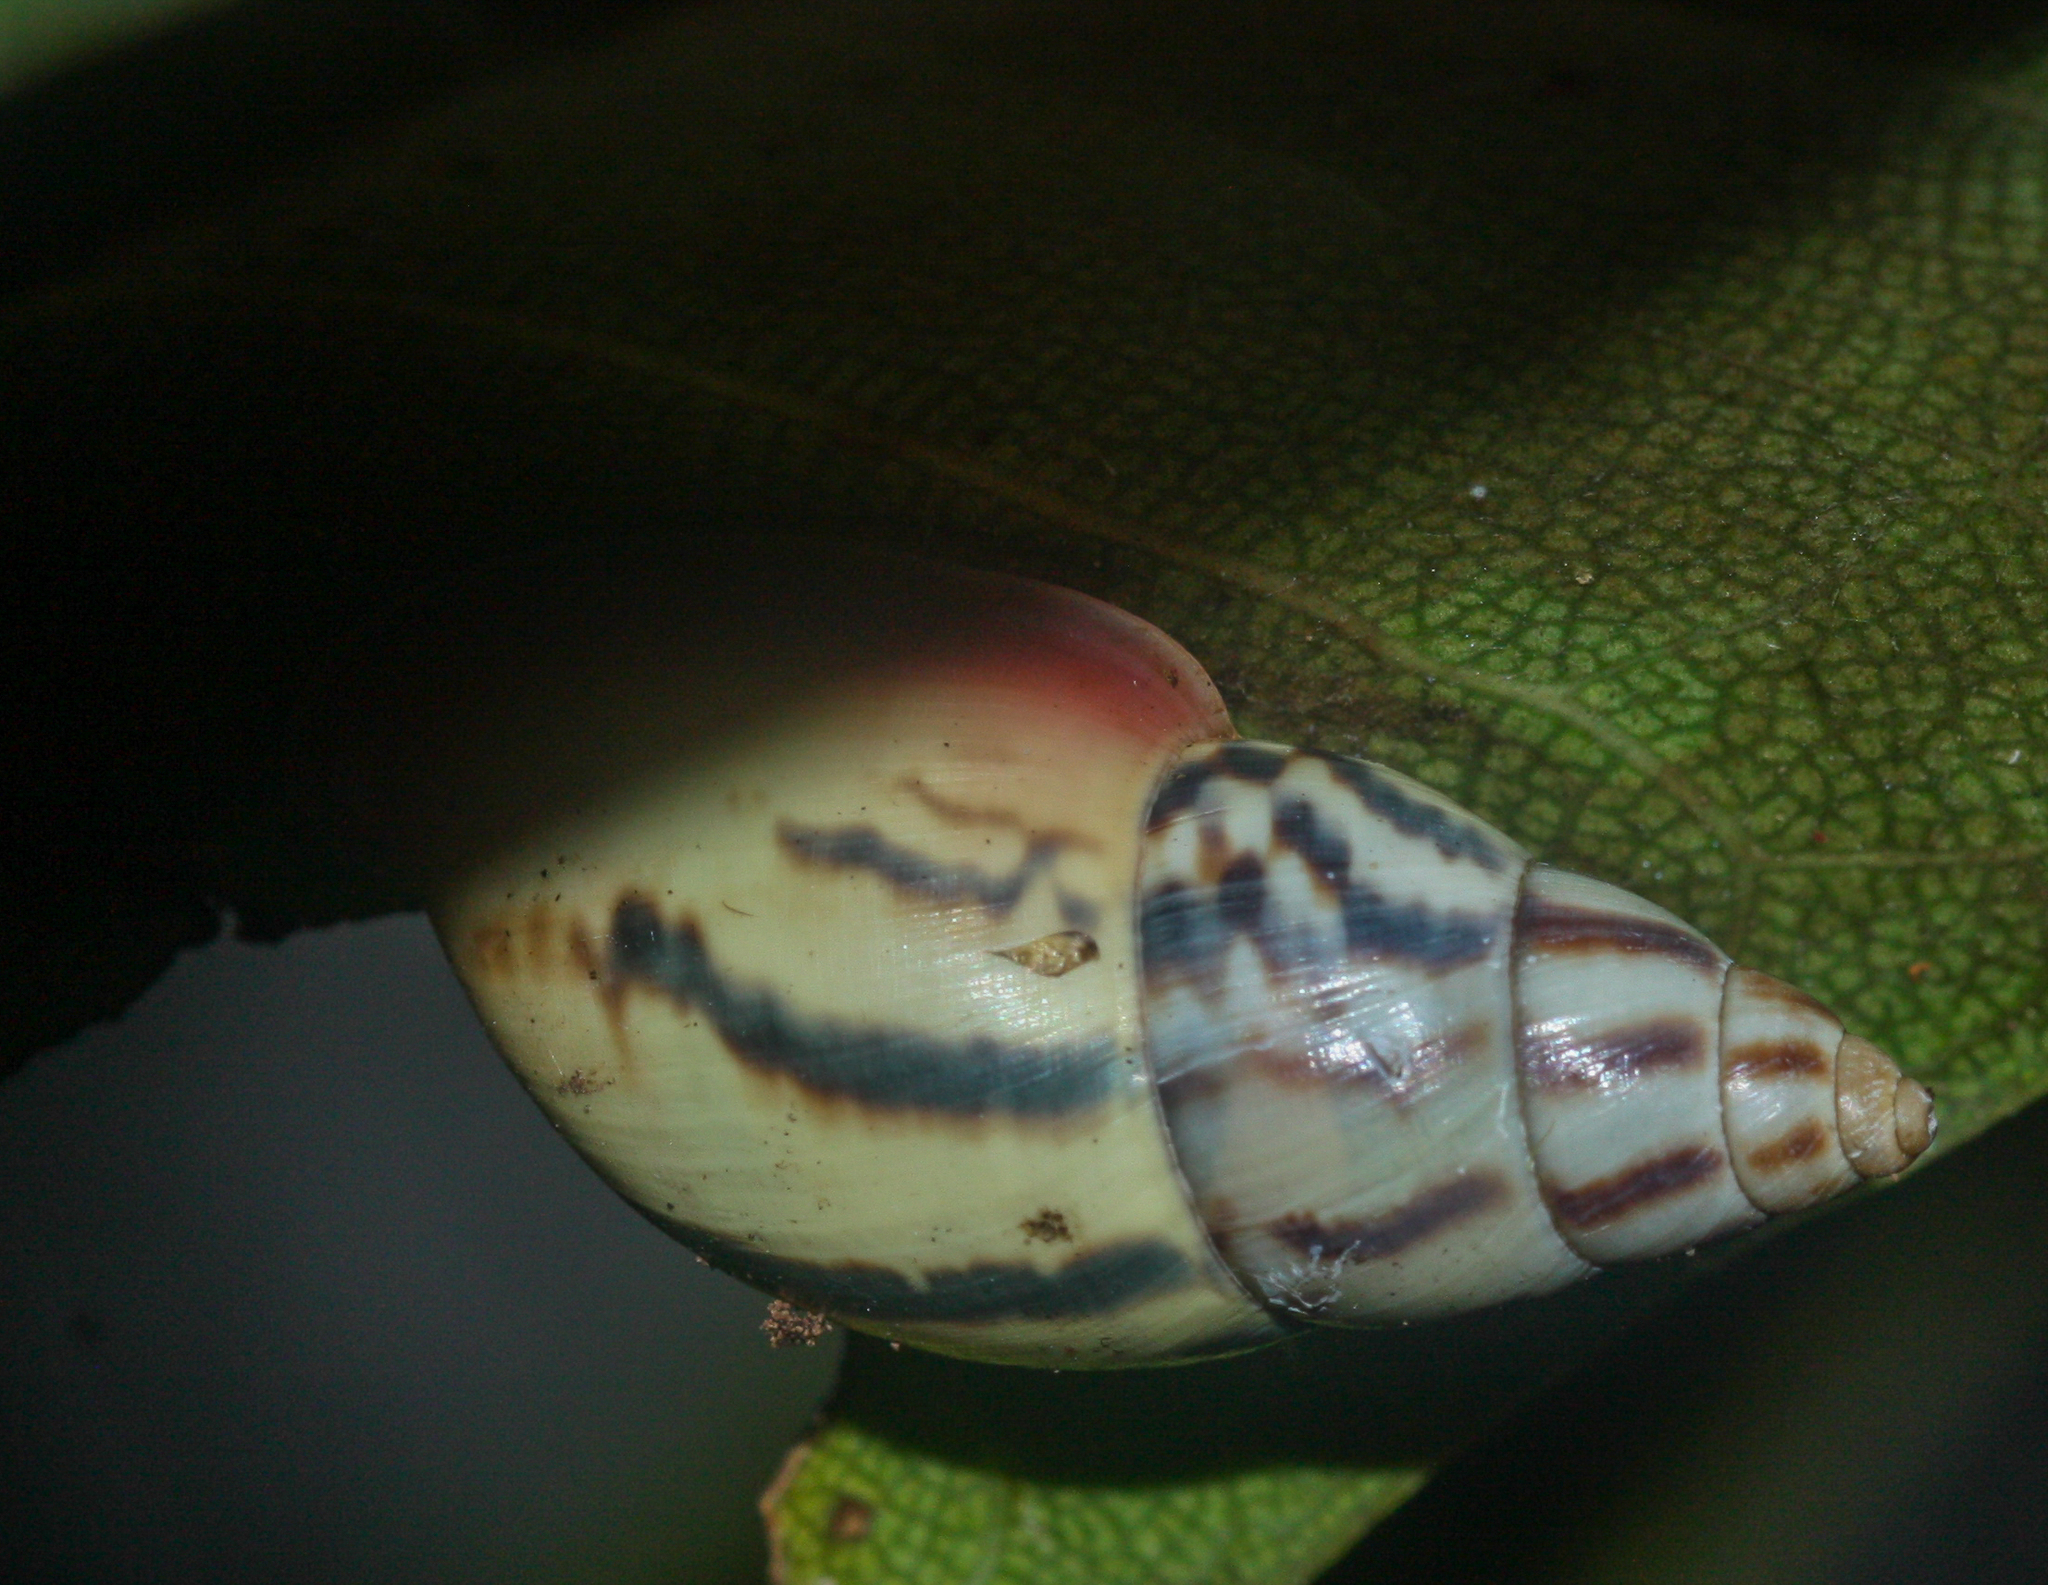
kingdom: Animalia
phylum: Mollusca
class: Gastropoda
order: Stylommatophora
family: Bulimulidae
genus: Drymaeus
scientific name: Drymaeus aequatorianus
